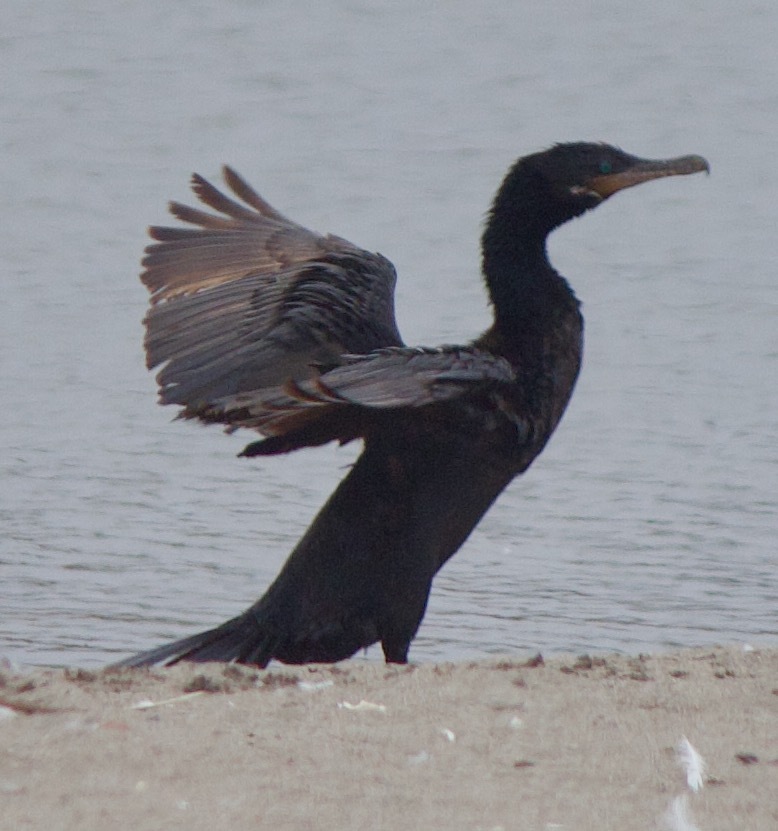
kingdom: Animalia
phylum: Chordata
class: Aves
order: Suliformes
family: Phalacrocoracidae
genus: Phalacrocorax
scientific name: Phalacrocorax brasilianus
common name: Neotropic cormorant
